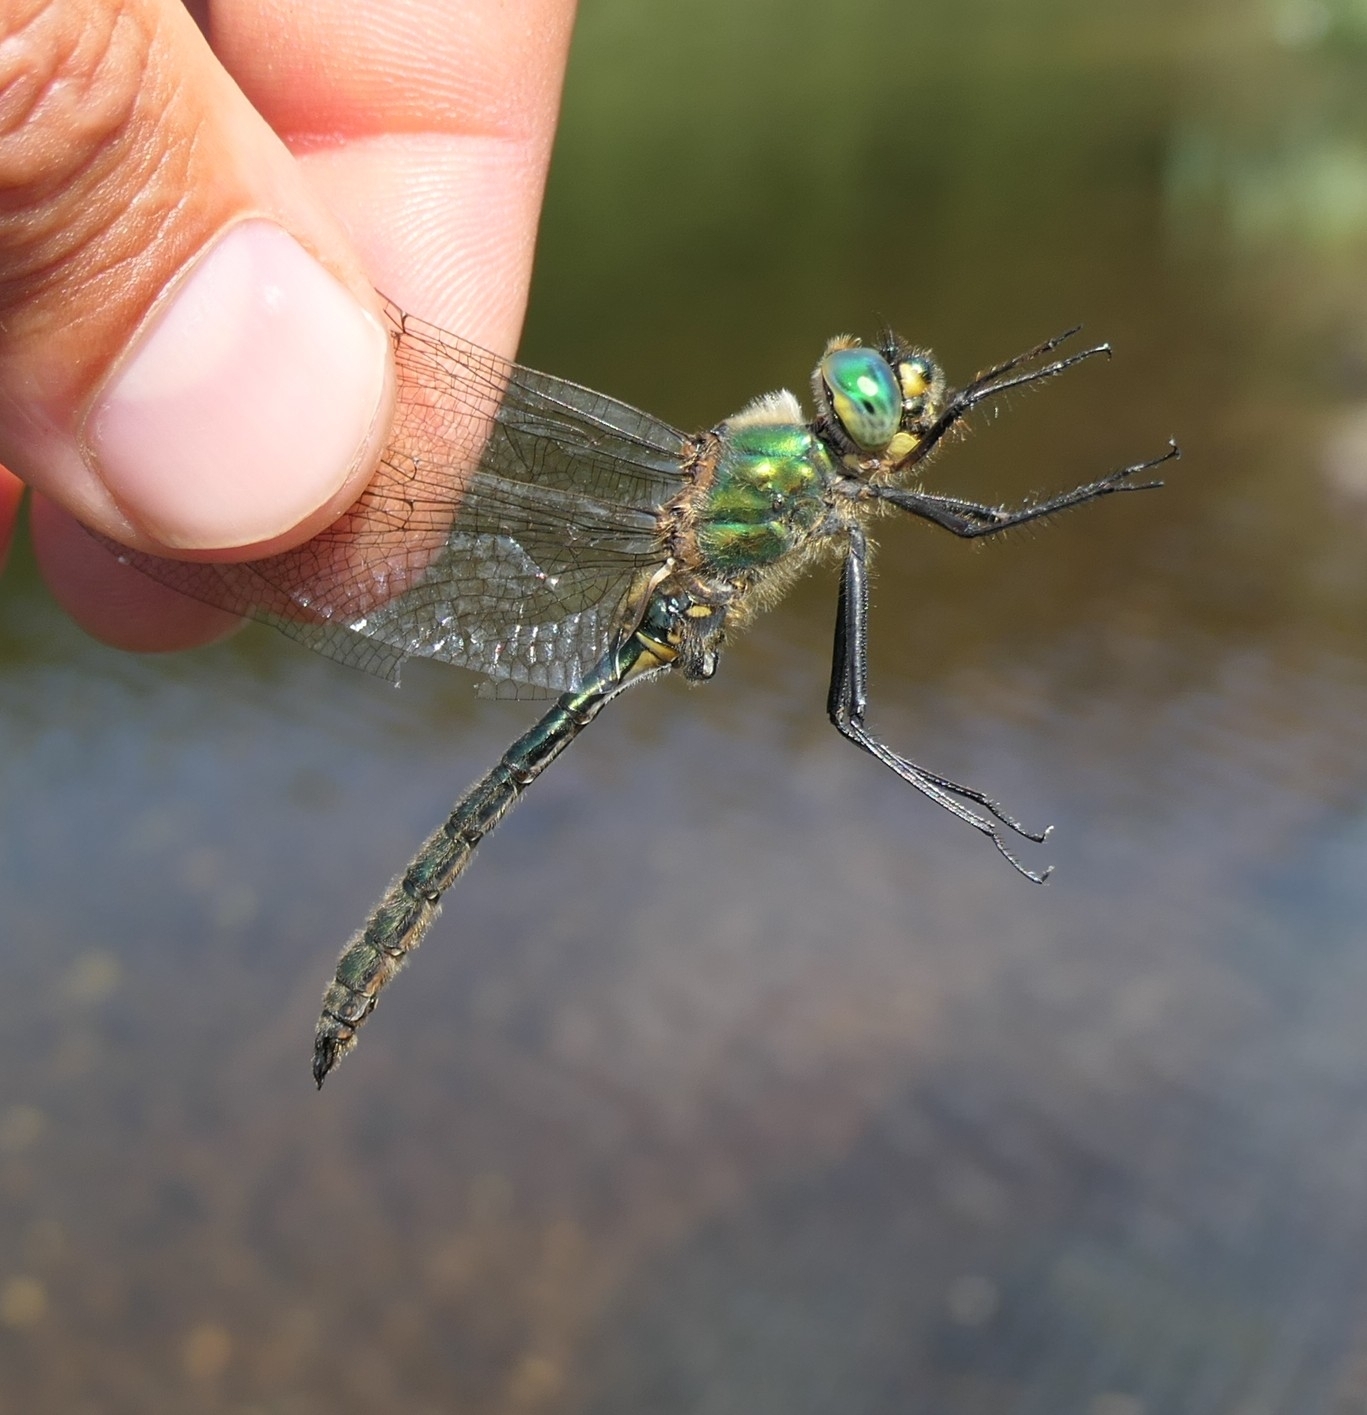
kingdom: Animalia
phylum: Arthropoda
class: Insecta
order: Odonata
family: Corduliidae
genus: Somatochlora
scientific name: Somatochlora metallica
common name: Brilliant emerald
